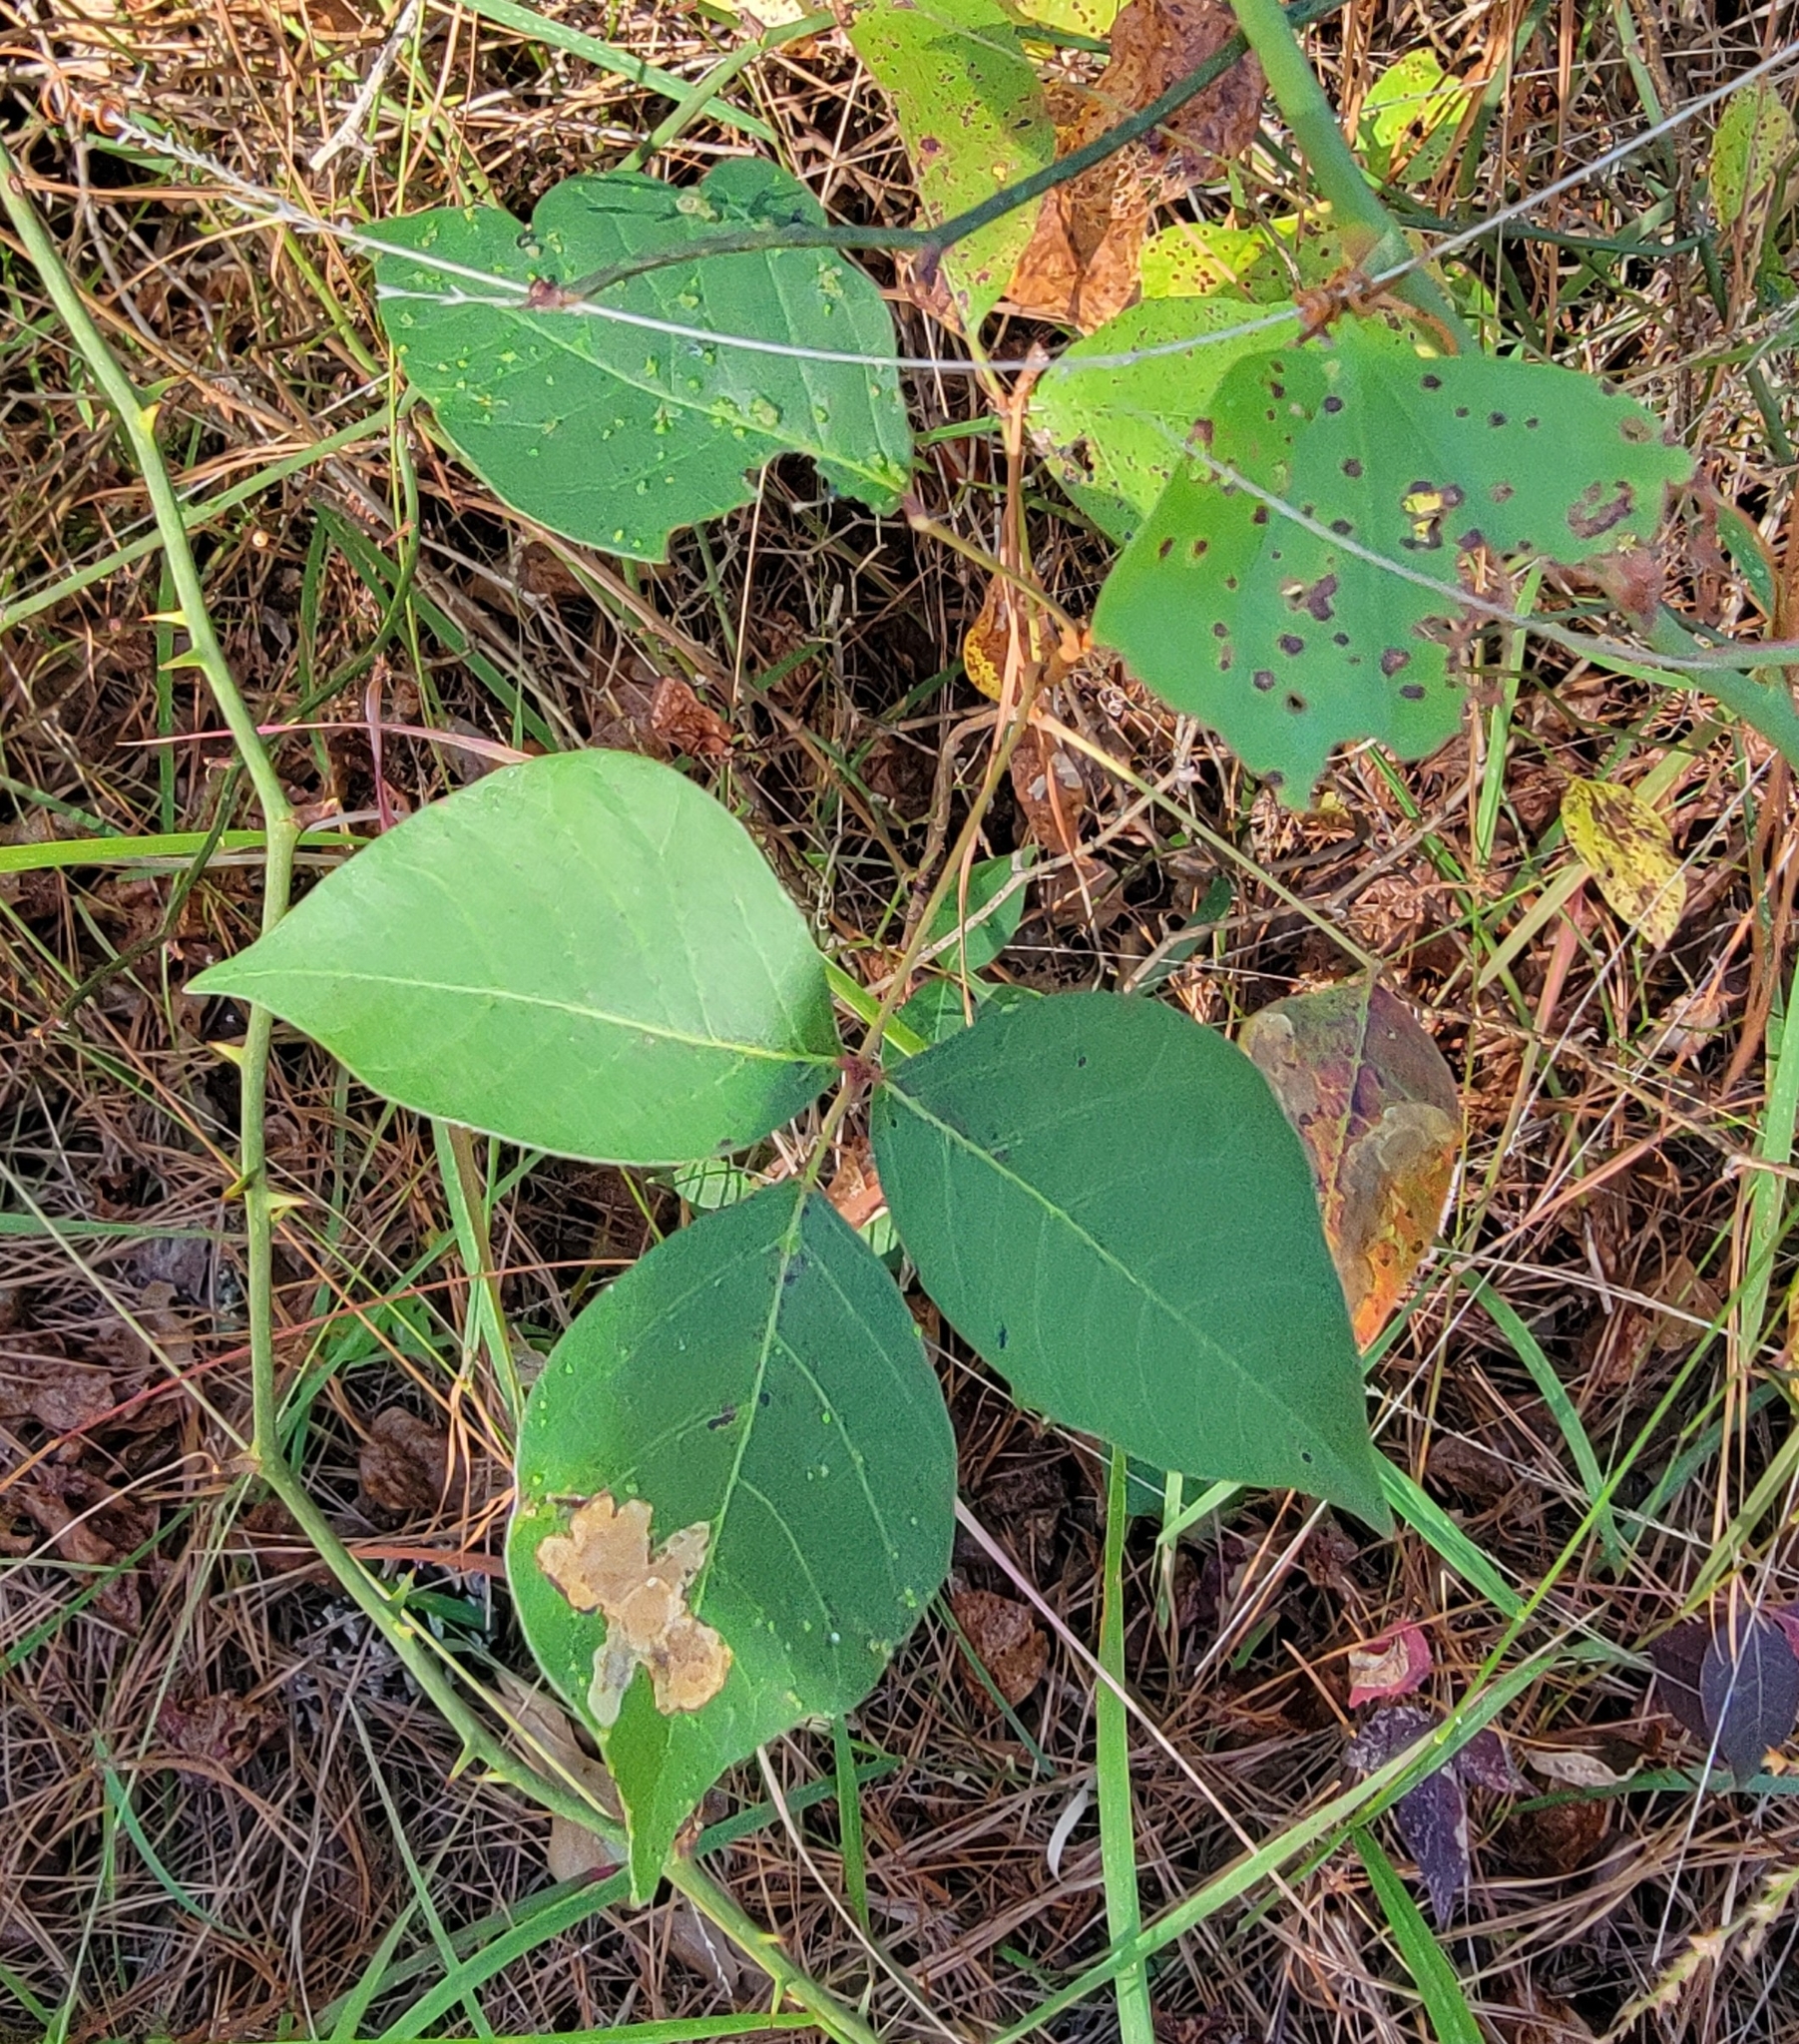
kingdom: Plantae
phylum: Tracheophyta
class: Magnoliopsida
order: Sapindales
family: Anacardiaceae
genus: Toxicodendron
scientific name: Toxicodendron radicans
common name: Poison ivy
